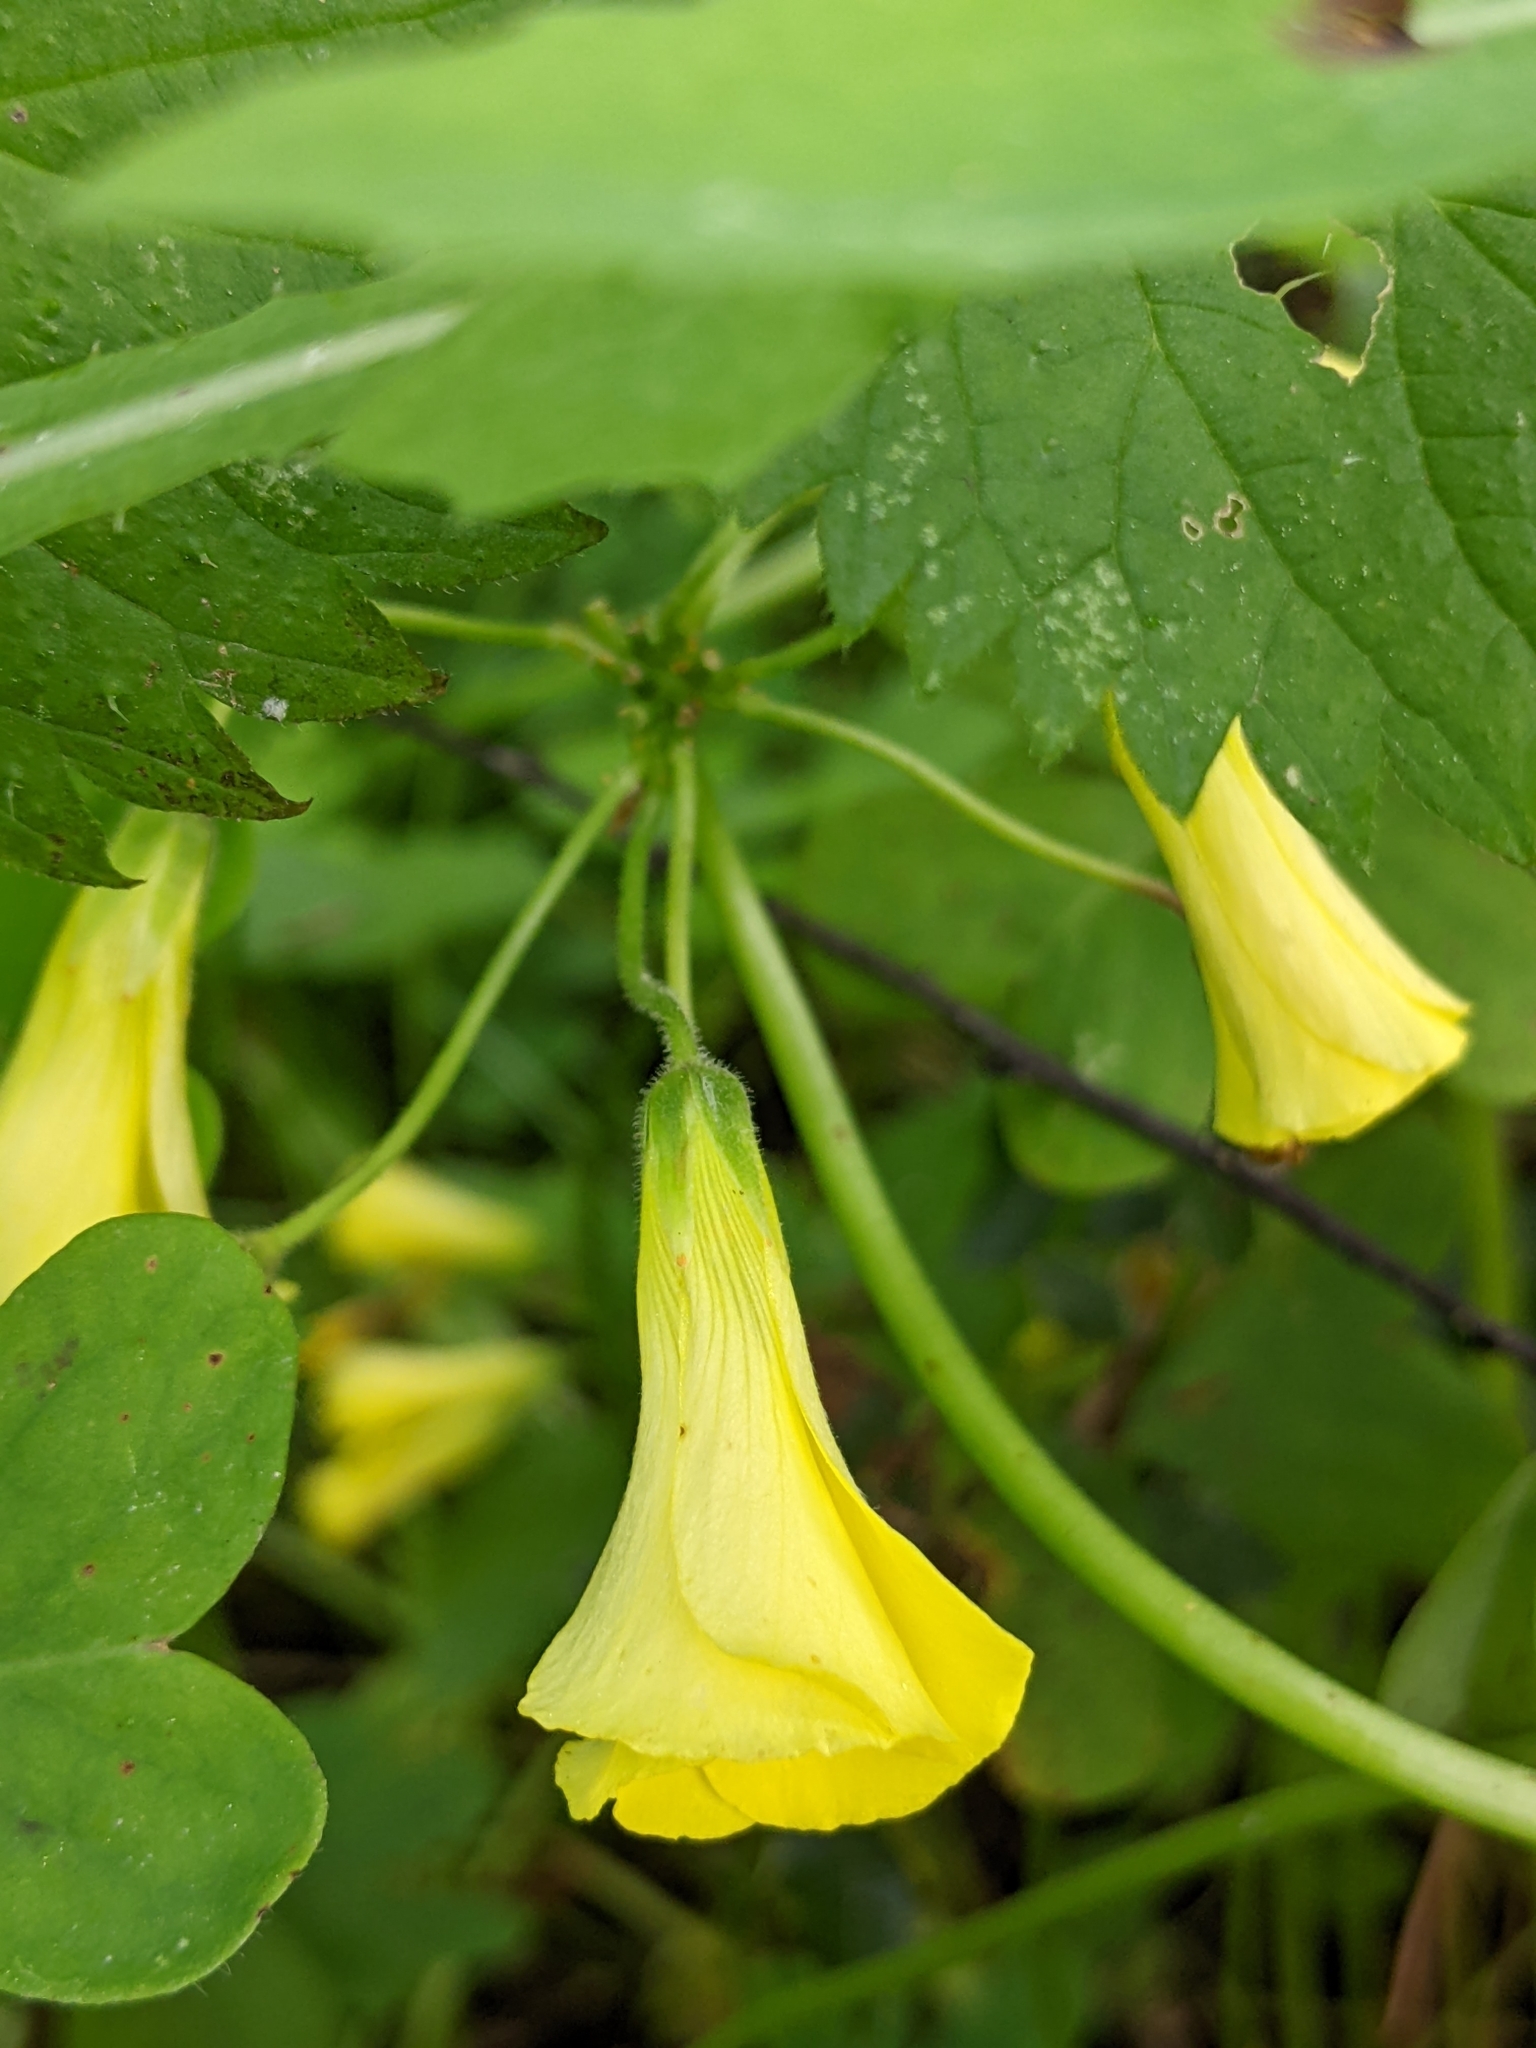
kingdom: Plantae
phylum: Tracheophyta
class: Magnoliopsida
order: Oxalidales
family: Oxalidaceae
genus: Oxalis
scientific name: Oxalis pes-caprae
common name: Bermuda-buttercup
